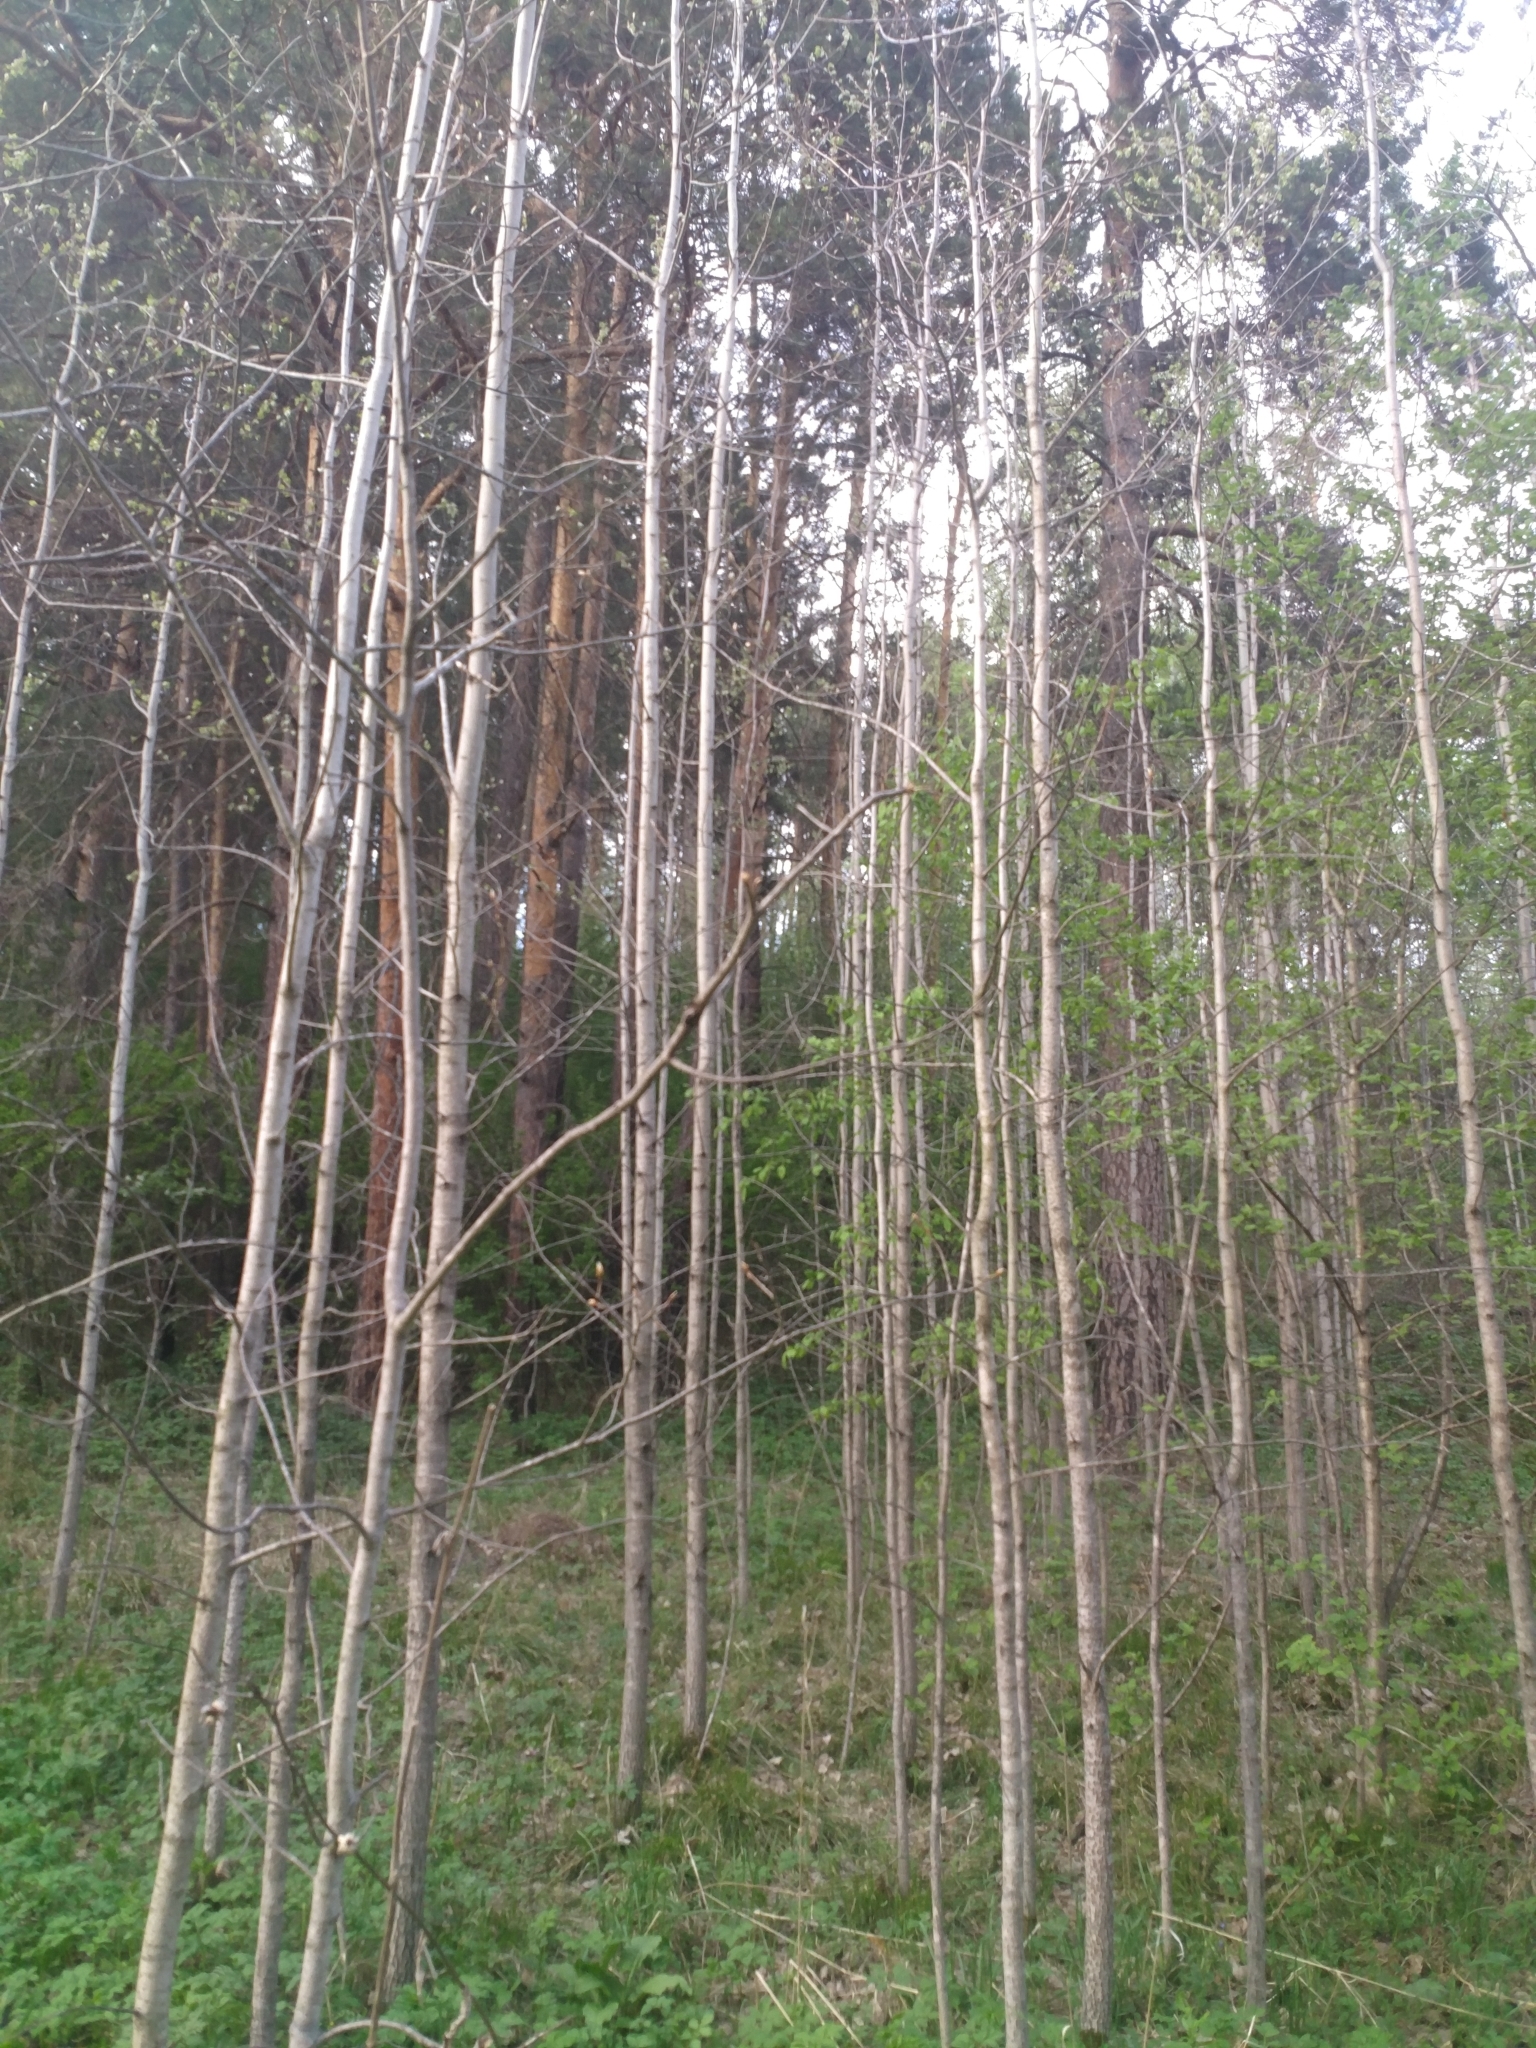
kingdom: Plantae
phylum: Tracheophyta
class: Magnoliopsida
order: Malpighiales
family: Salicaceae
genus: Populus
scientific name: Populus tremula
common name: European aspen
